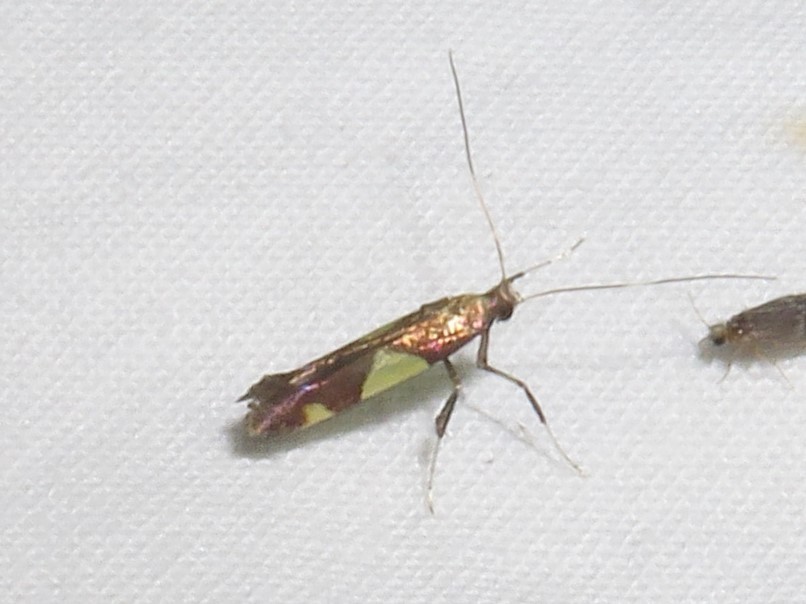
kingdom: Animalia
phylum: Arthropoda
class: Insecta
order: Lepidoptera
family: Gracillariidae
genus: Caloptilia
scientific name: Caloptilia bimaculatella
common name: Maple caloptilia moth
